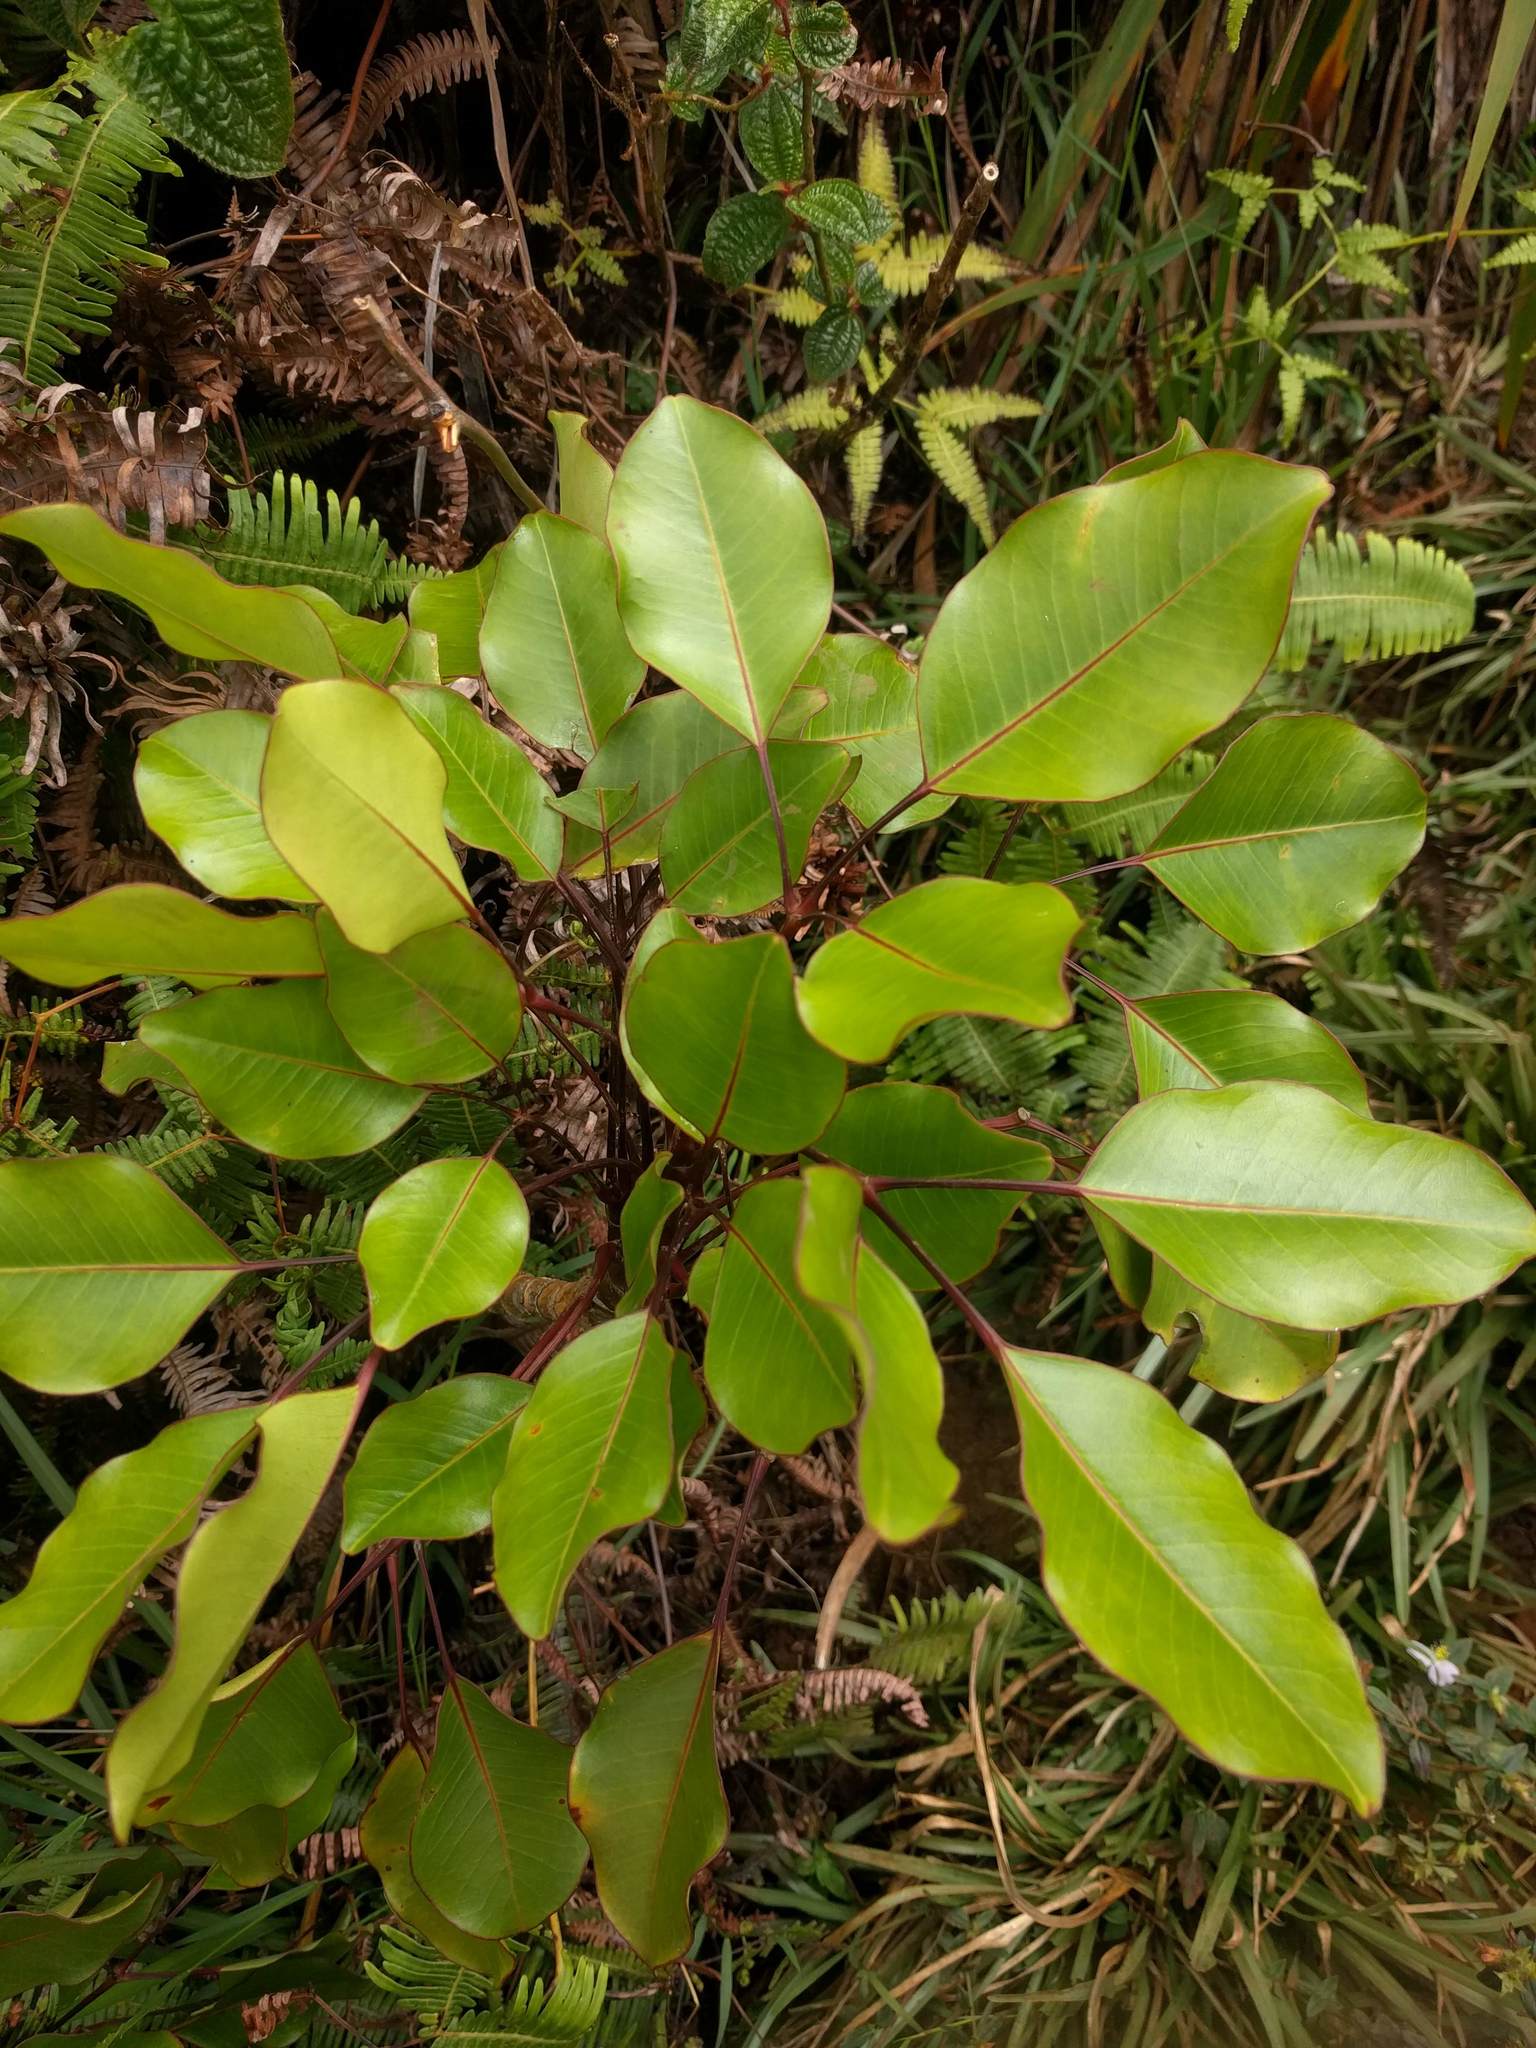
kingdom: Plantae
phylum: Tracheophyta
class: Magnoliopsida
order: Apiales
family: Araliaceae
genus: Cheirodendron
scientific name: Cheirodendron trigynum
